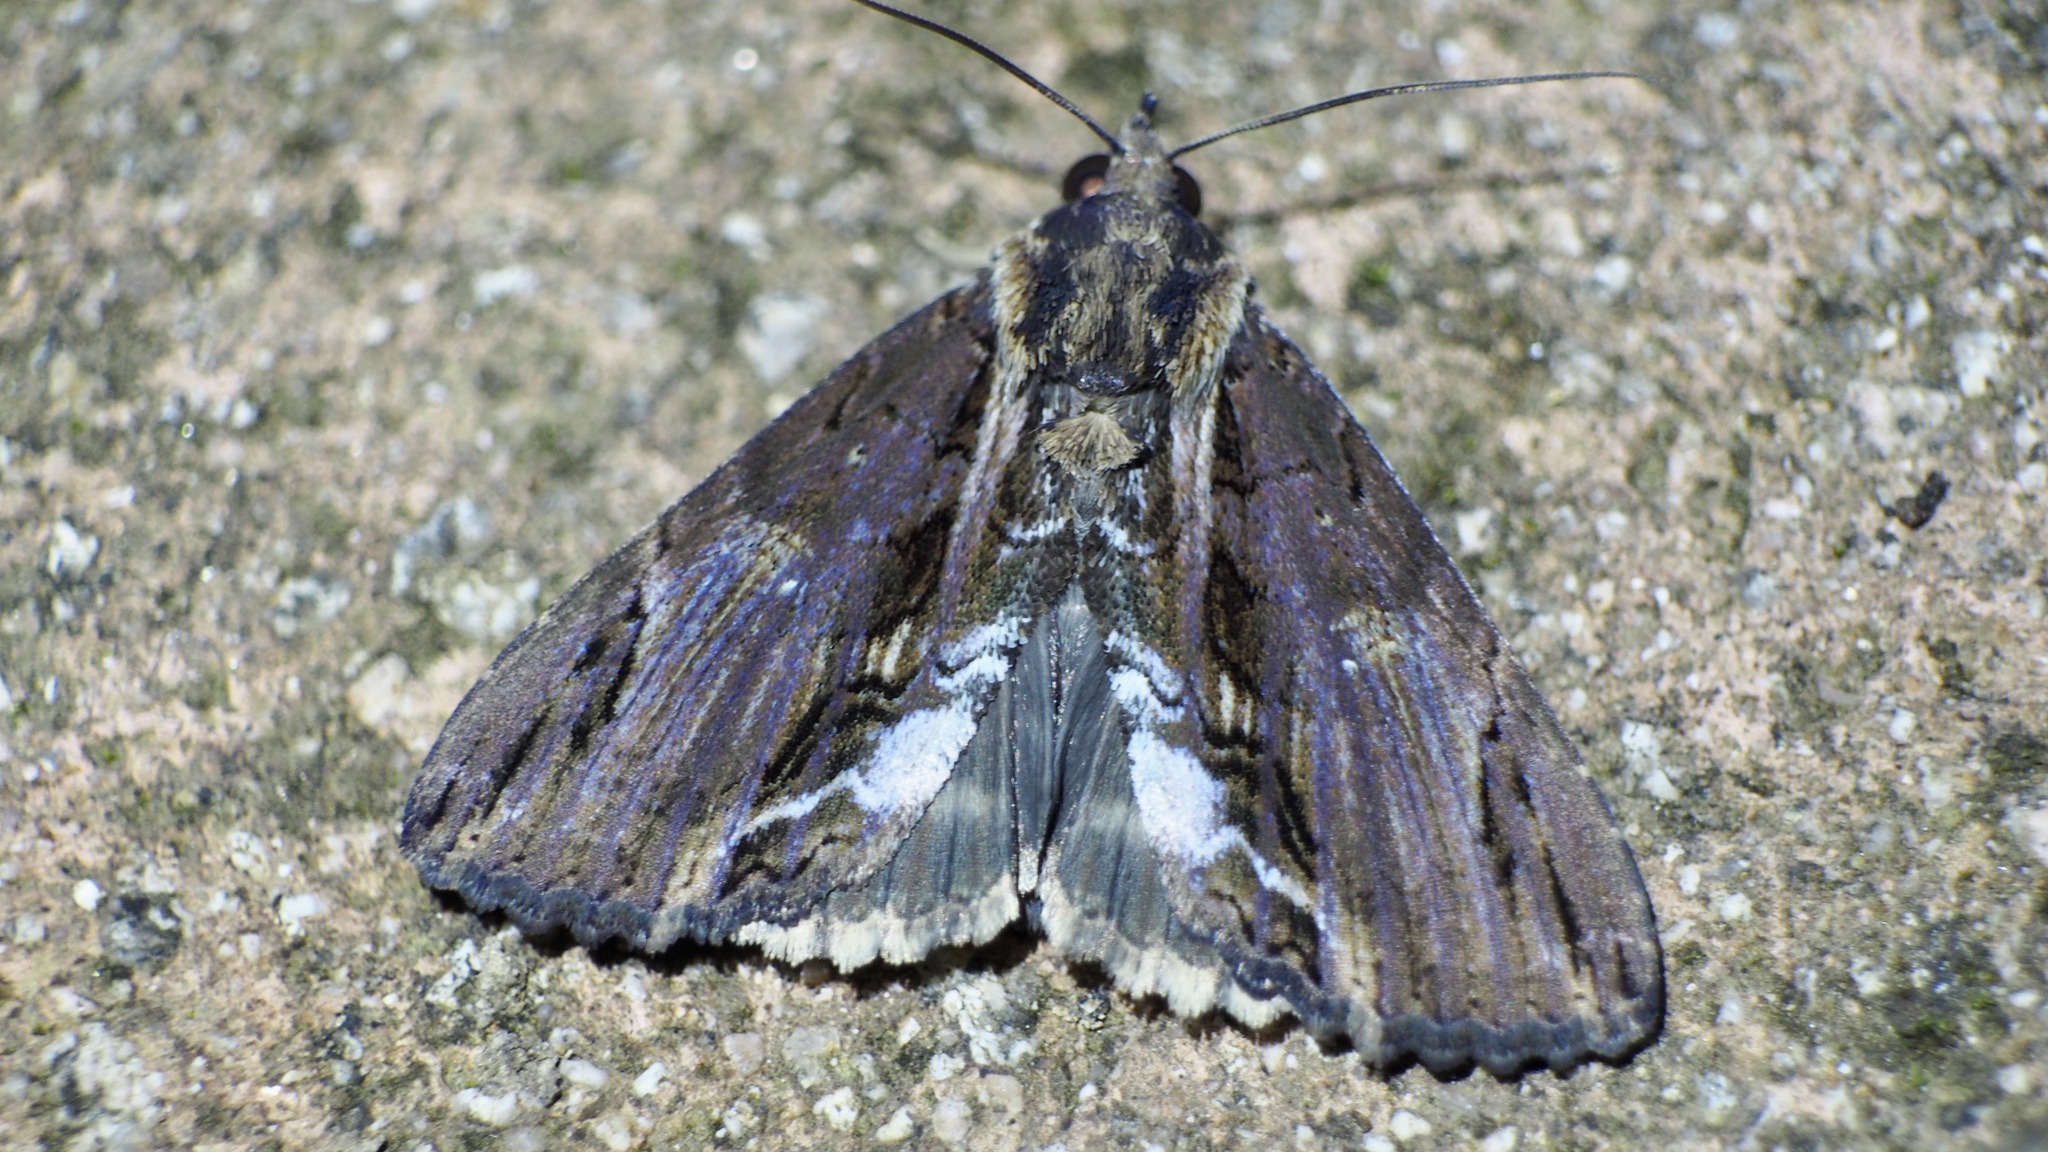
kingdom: Animalia
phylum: Arthropoda
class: Insecta
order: Lepidoptera
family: Erebidae
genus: Ercheia
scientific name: Ercheia umbrosa
